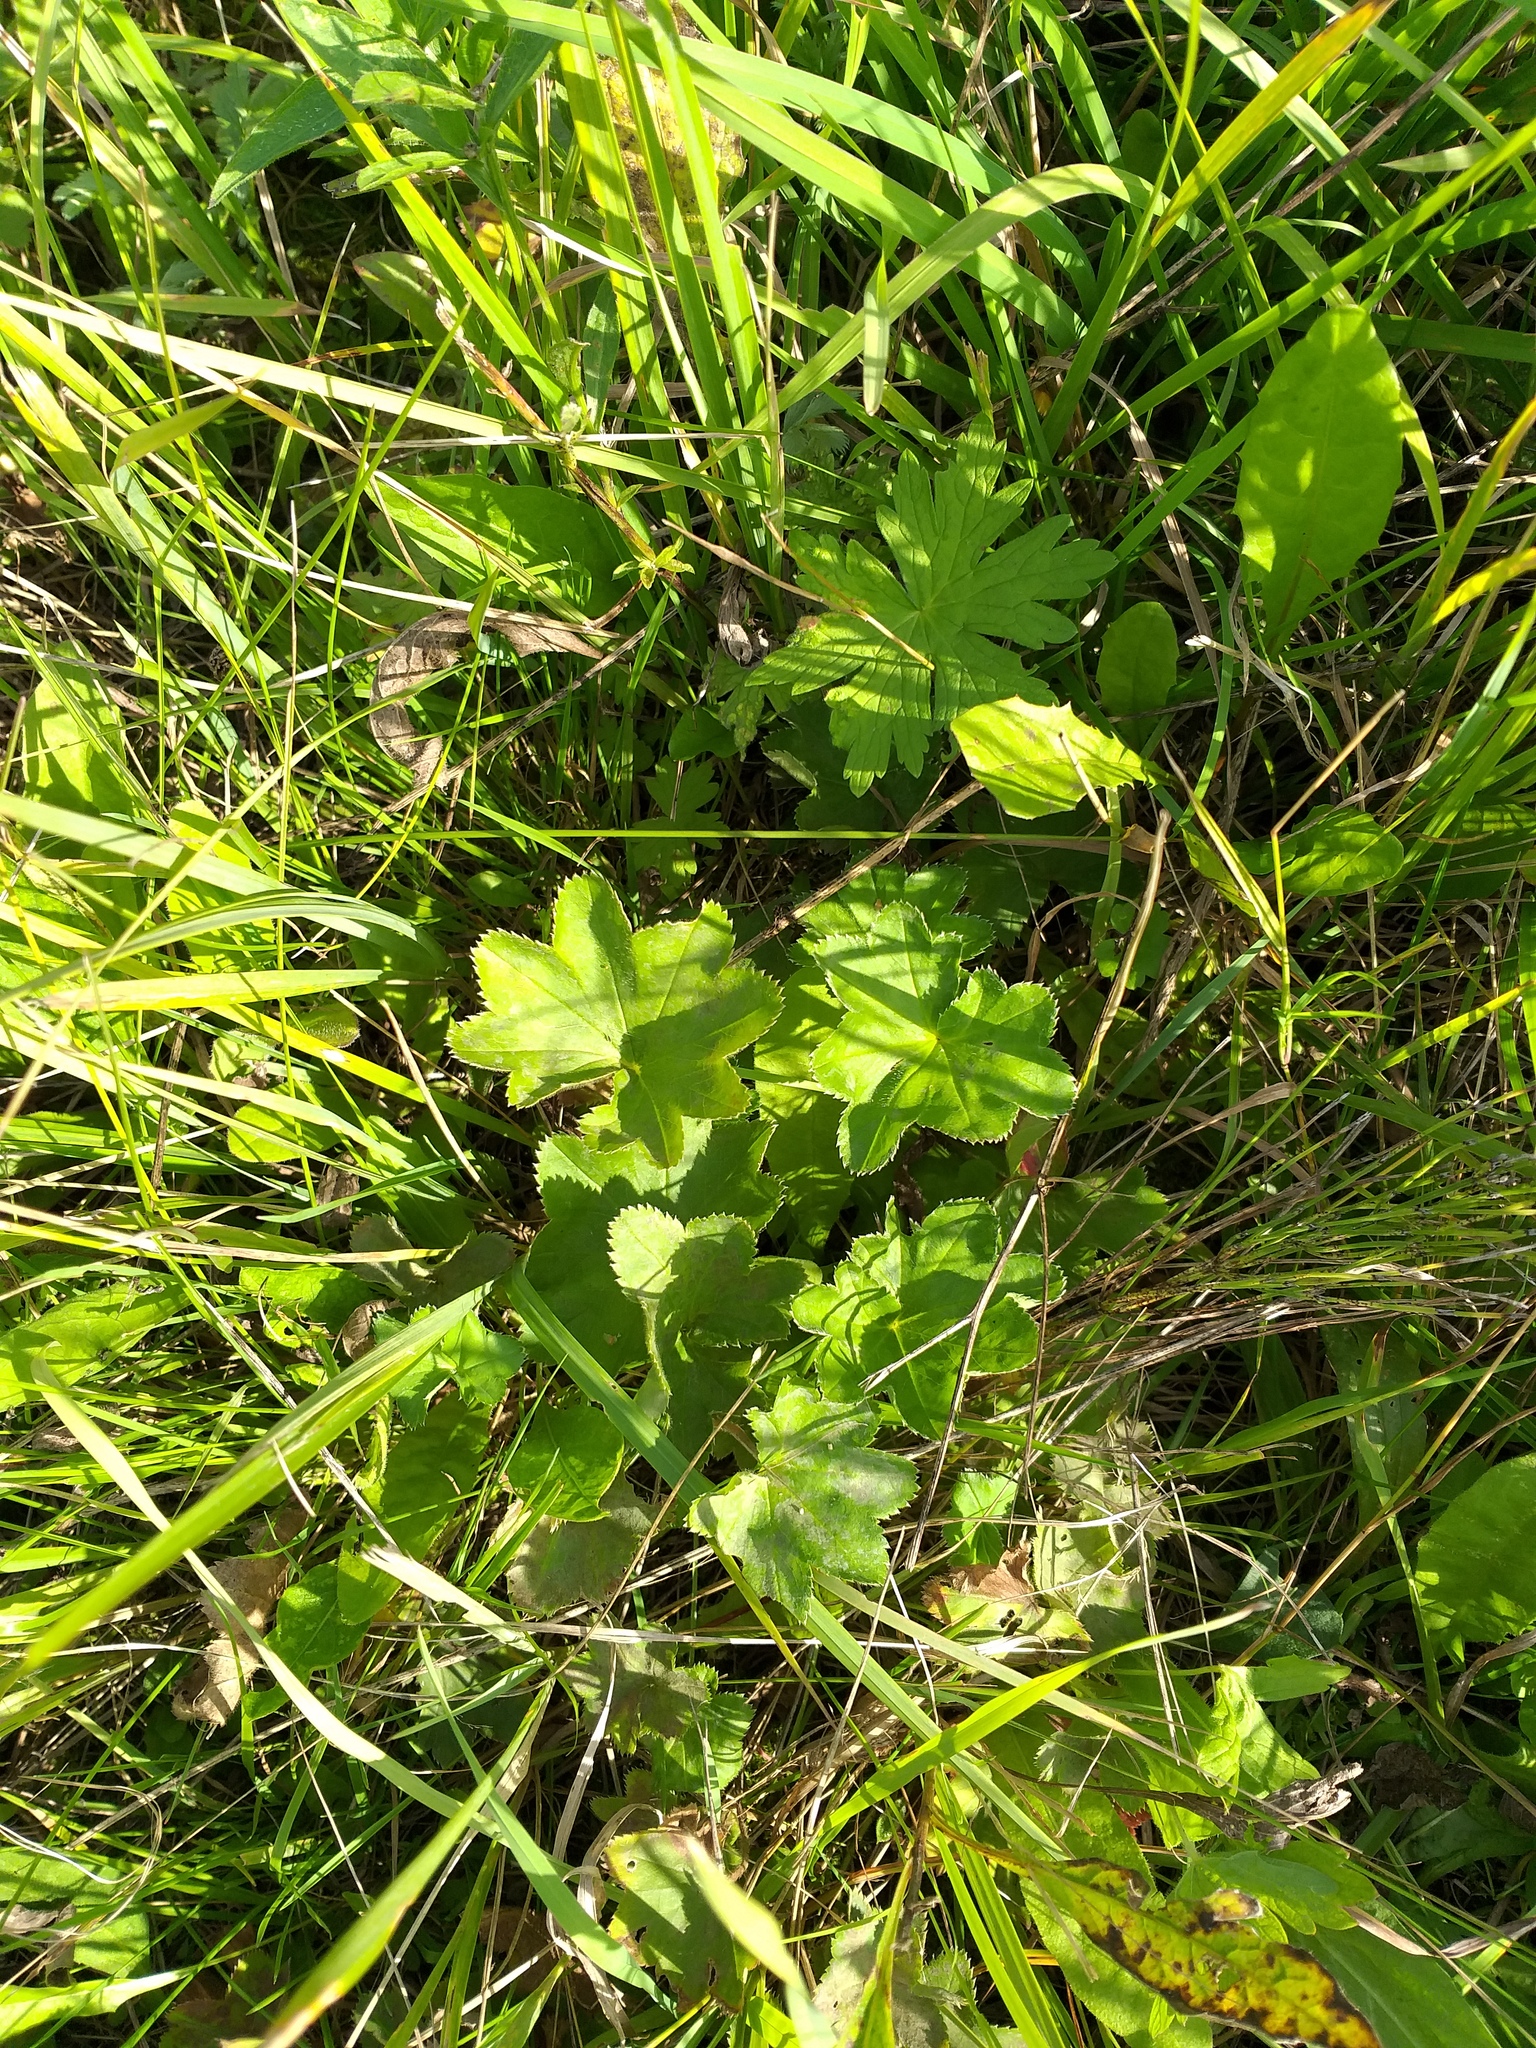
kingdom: Plantae
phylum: Tracheophyta
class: Magnoliopsida
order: Rosales
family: Rosaceae
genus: Alchemilla
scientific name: Alchemilla
